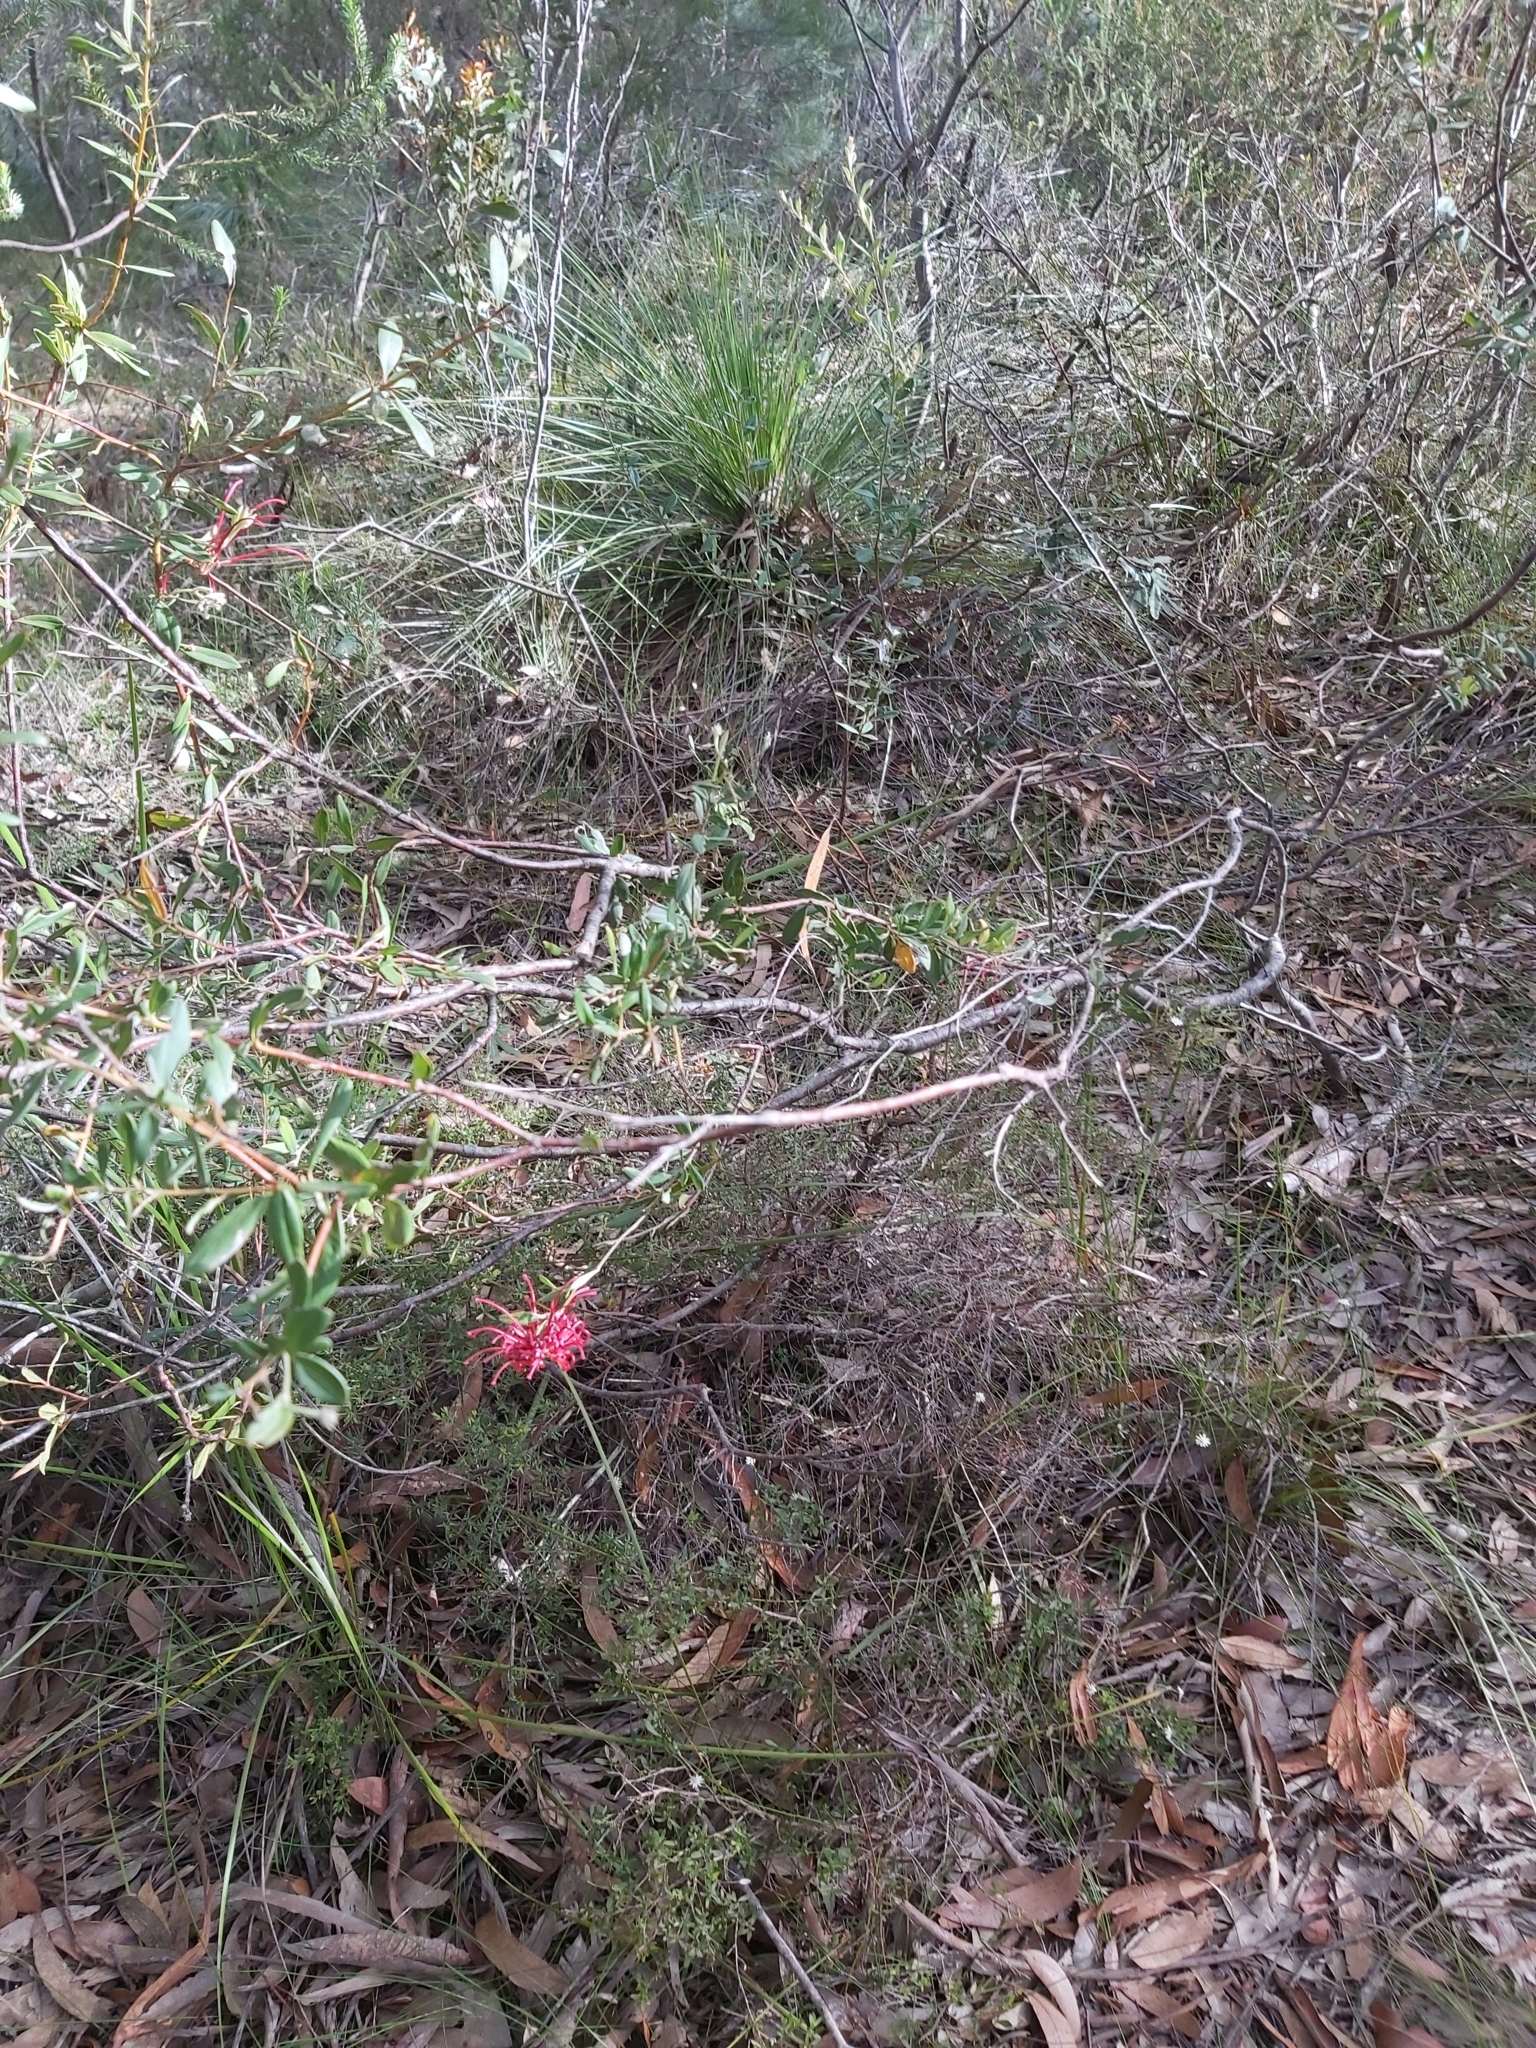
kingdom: Plantae
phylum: Tracheophyta
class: Magnoliopsida
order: Proteales
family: Proteaceae
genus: Grevillea
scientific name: Grevillea speciosa
